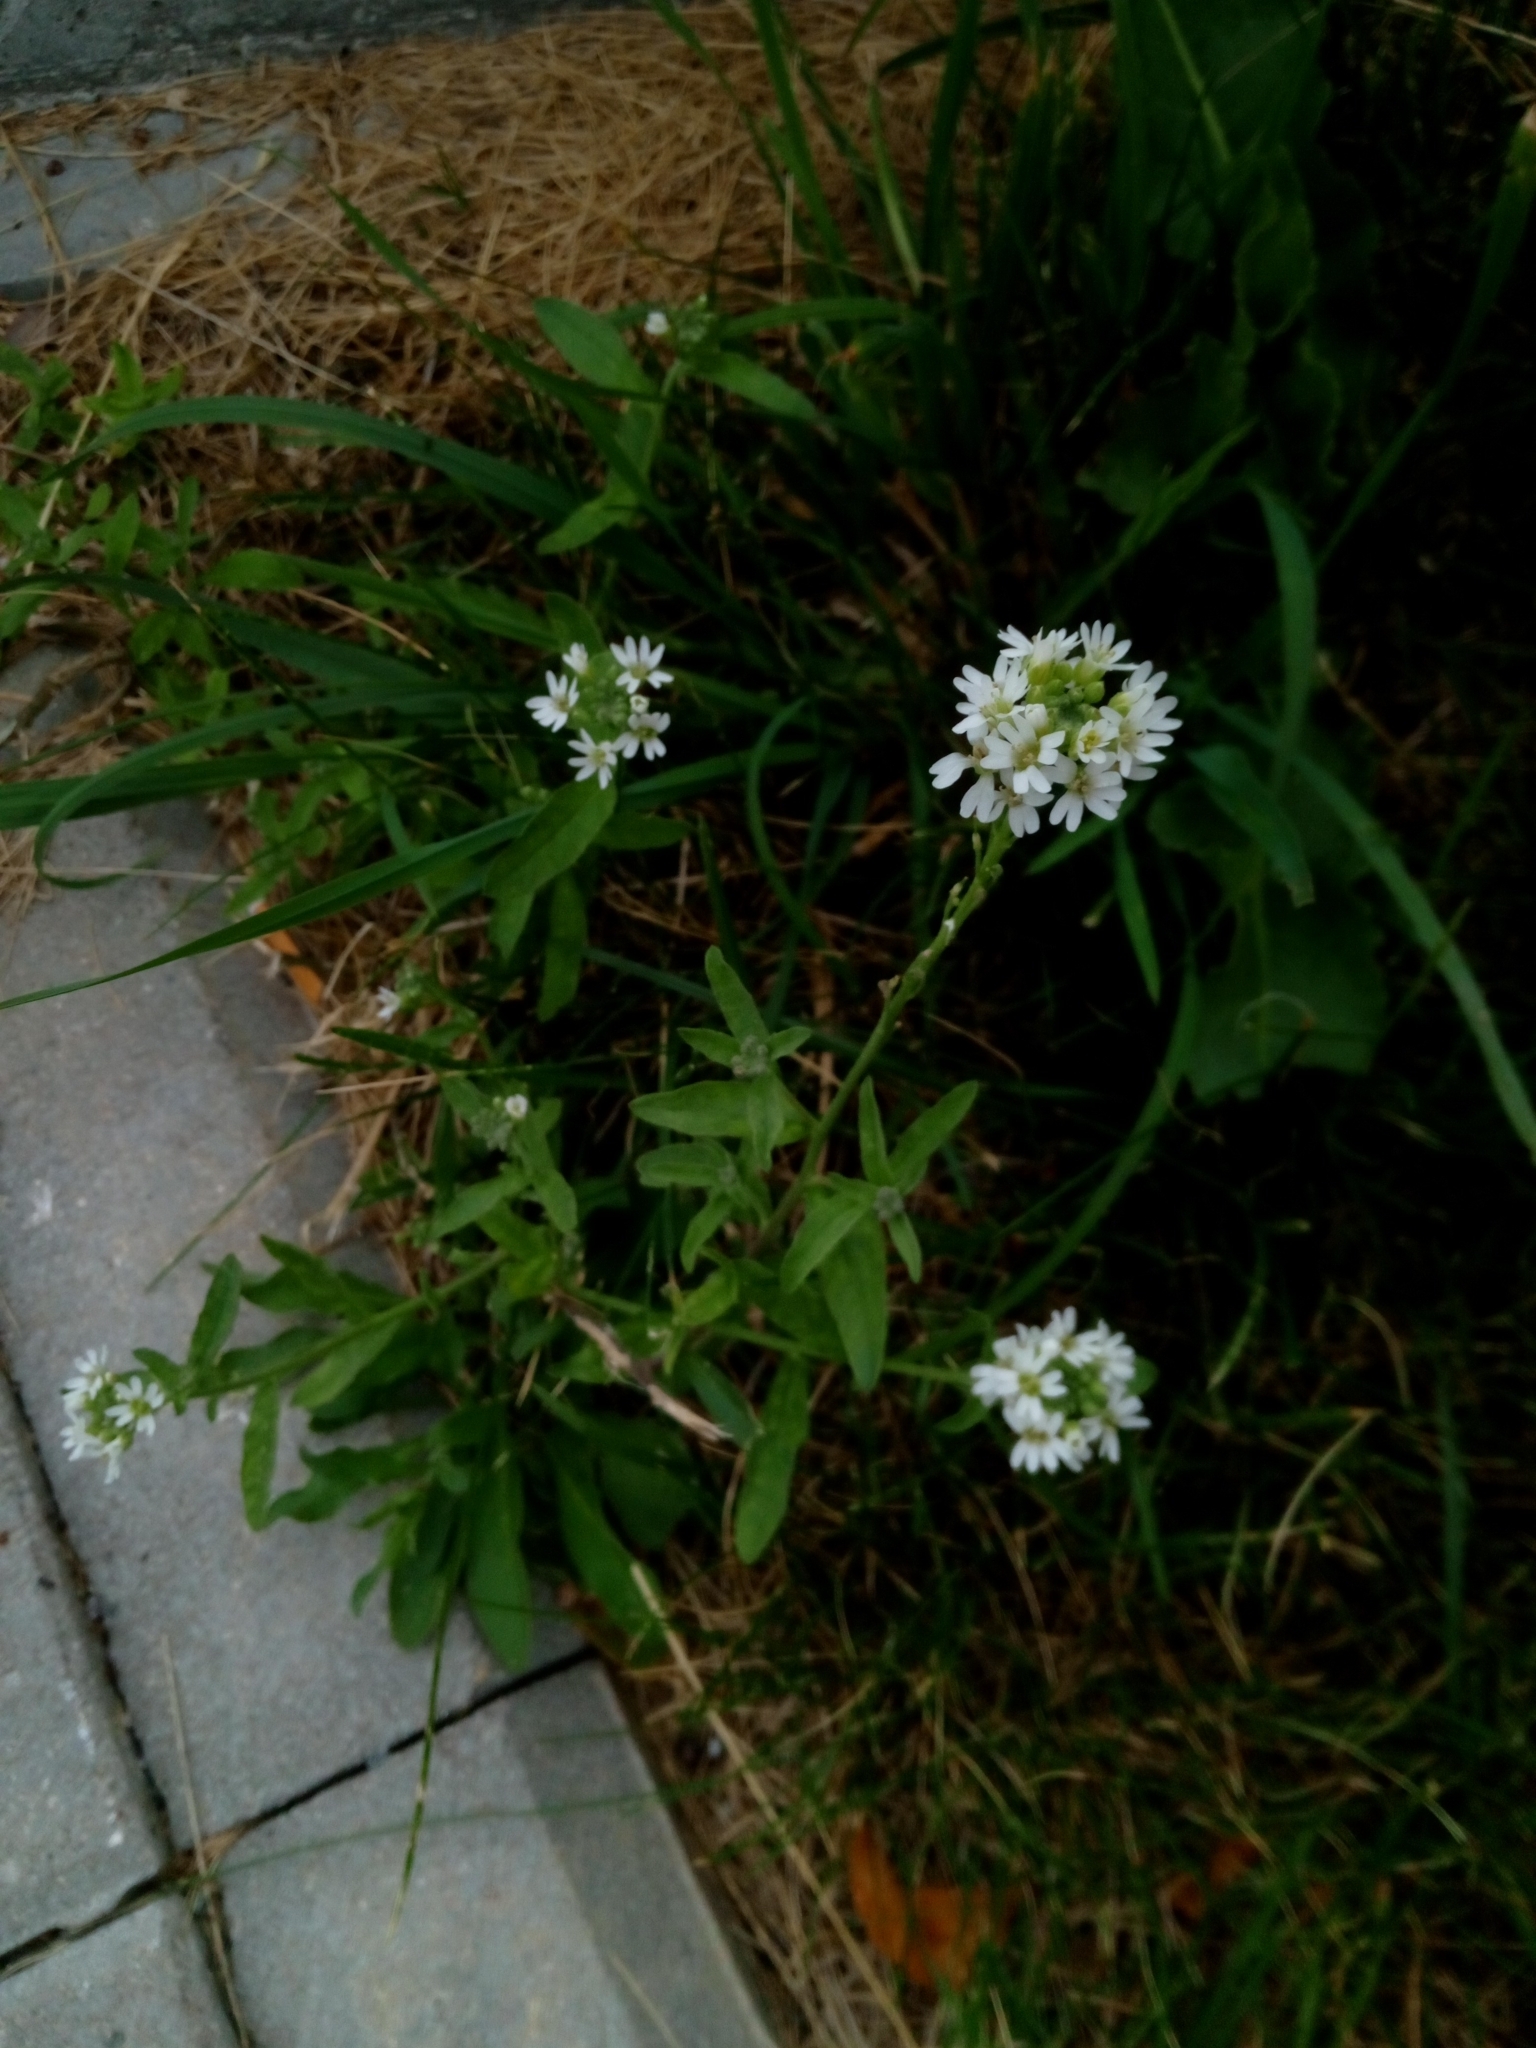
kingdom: Plantae
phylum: Tracheophyta
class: Magnoliopsida
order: Brassicales
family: Brassicaceae
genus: Berteroa
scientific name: Berteroa incana
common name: Hoary alison
